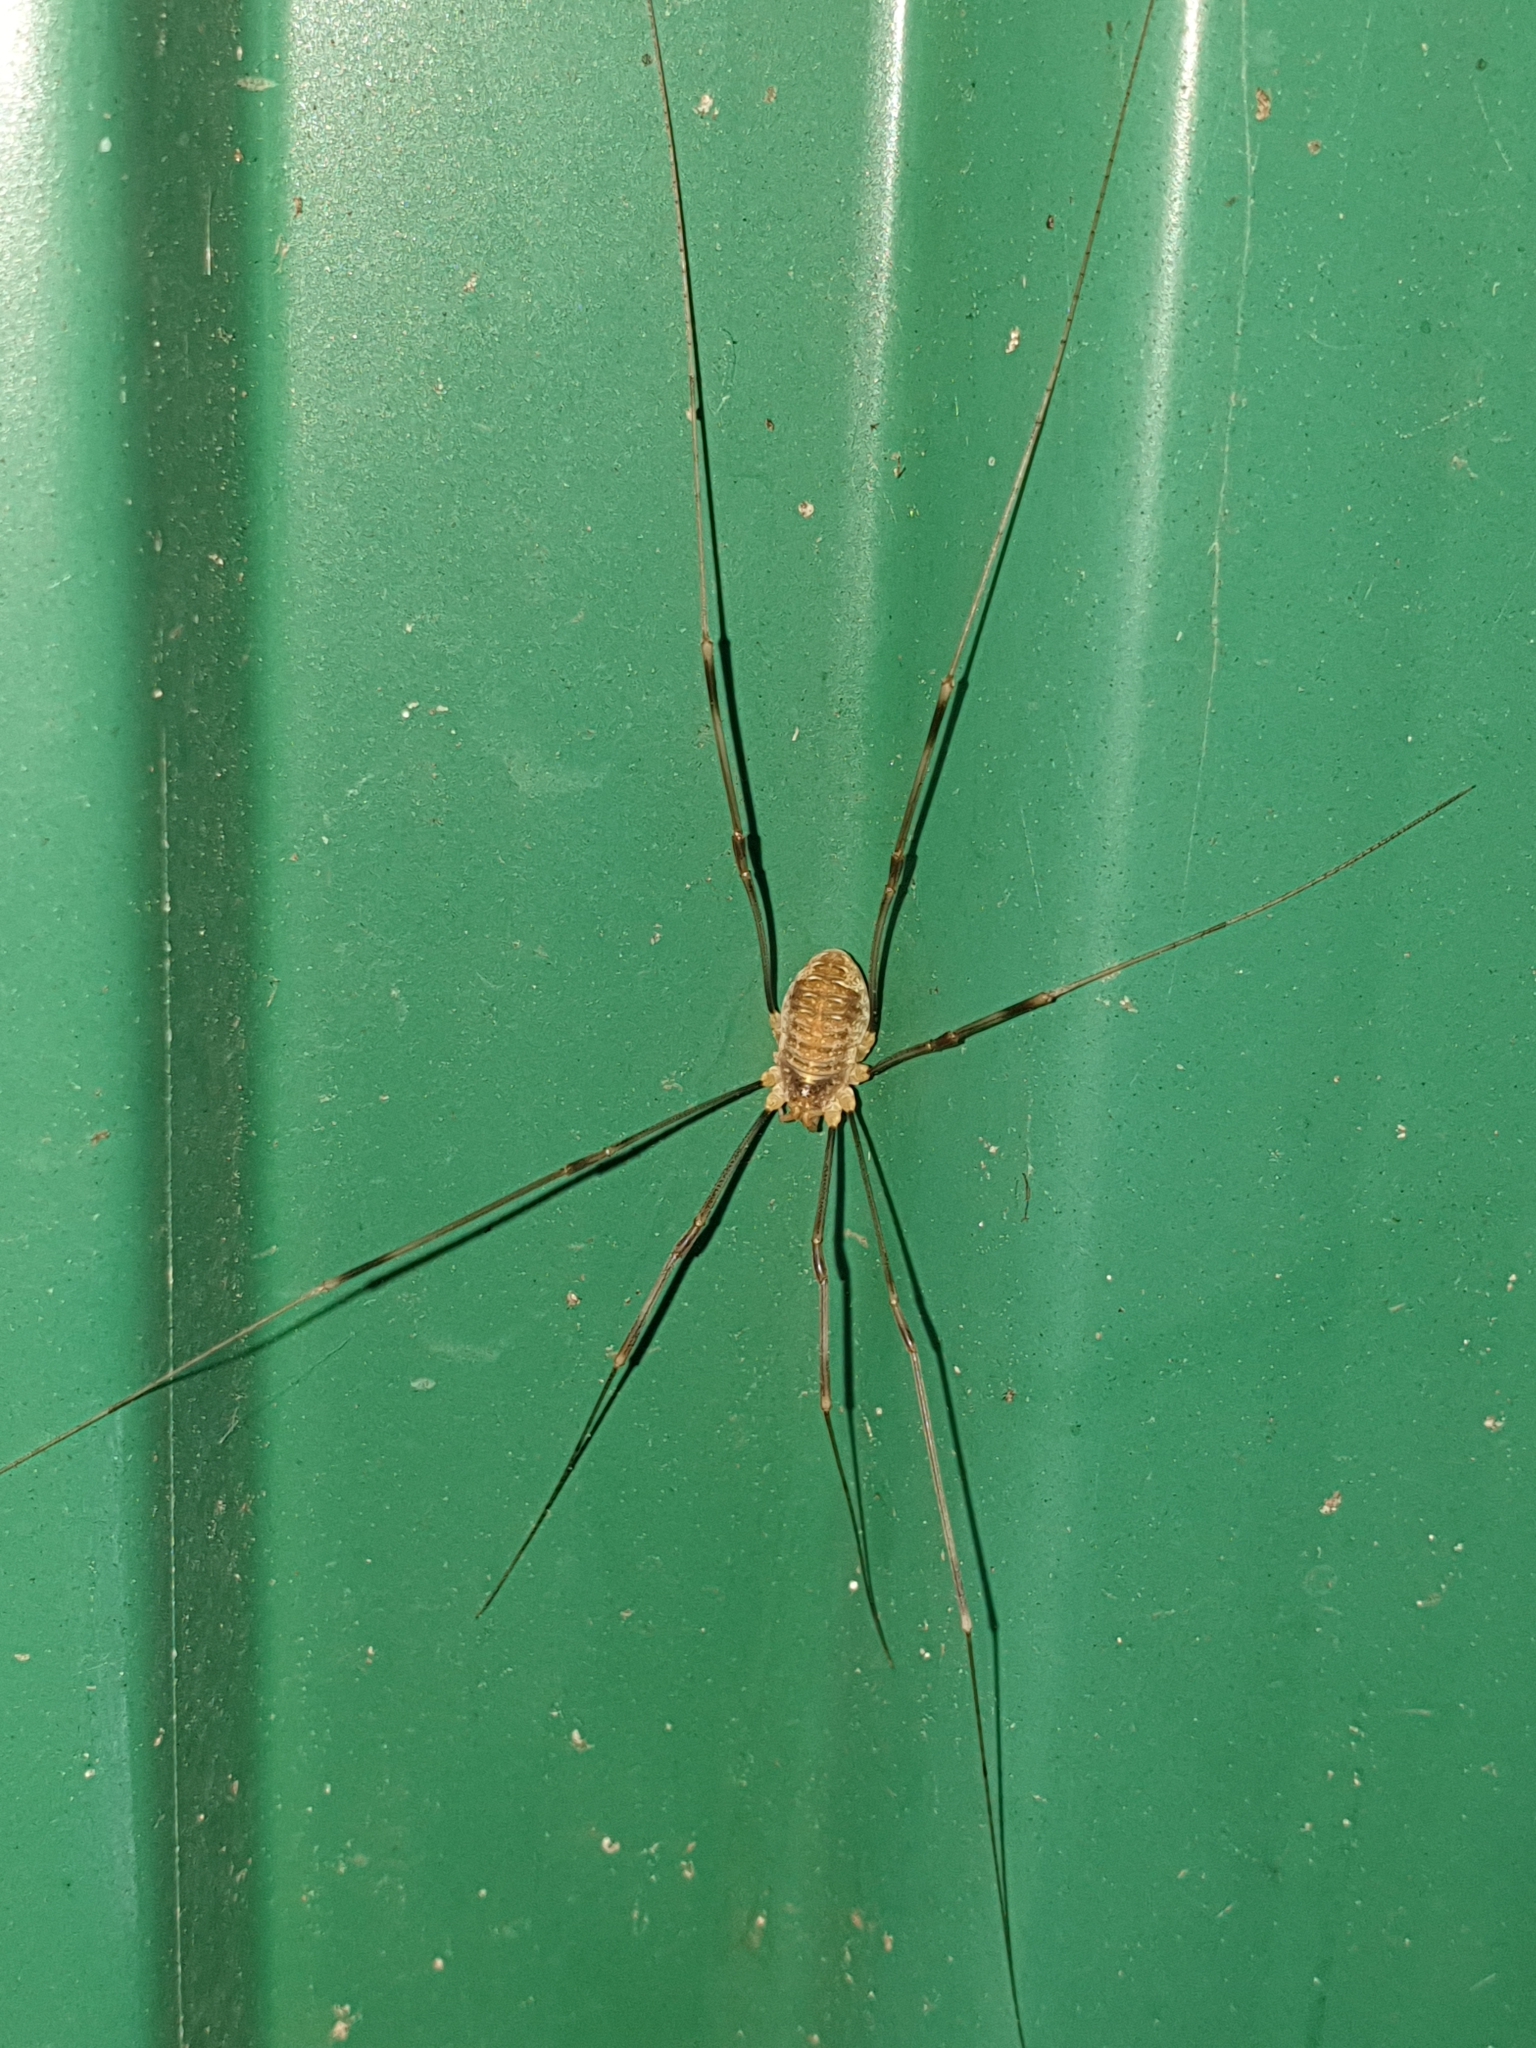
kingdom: Animalia
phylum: Arthropoda
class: Arachnida
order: Opiliones
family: Phalangiidae
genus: Opilio
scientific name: Opilio canestrinii
